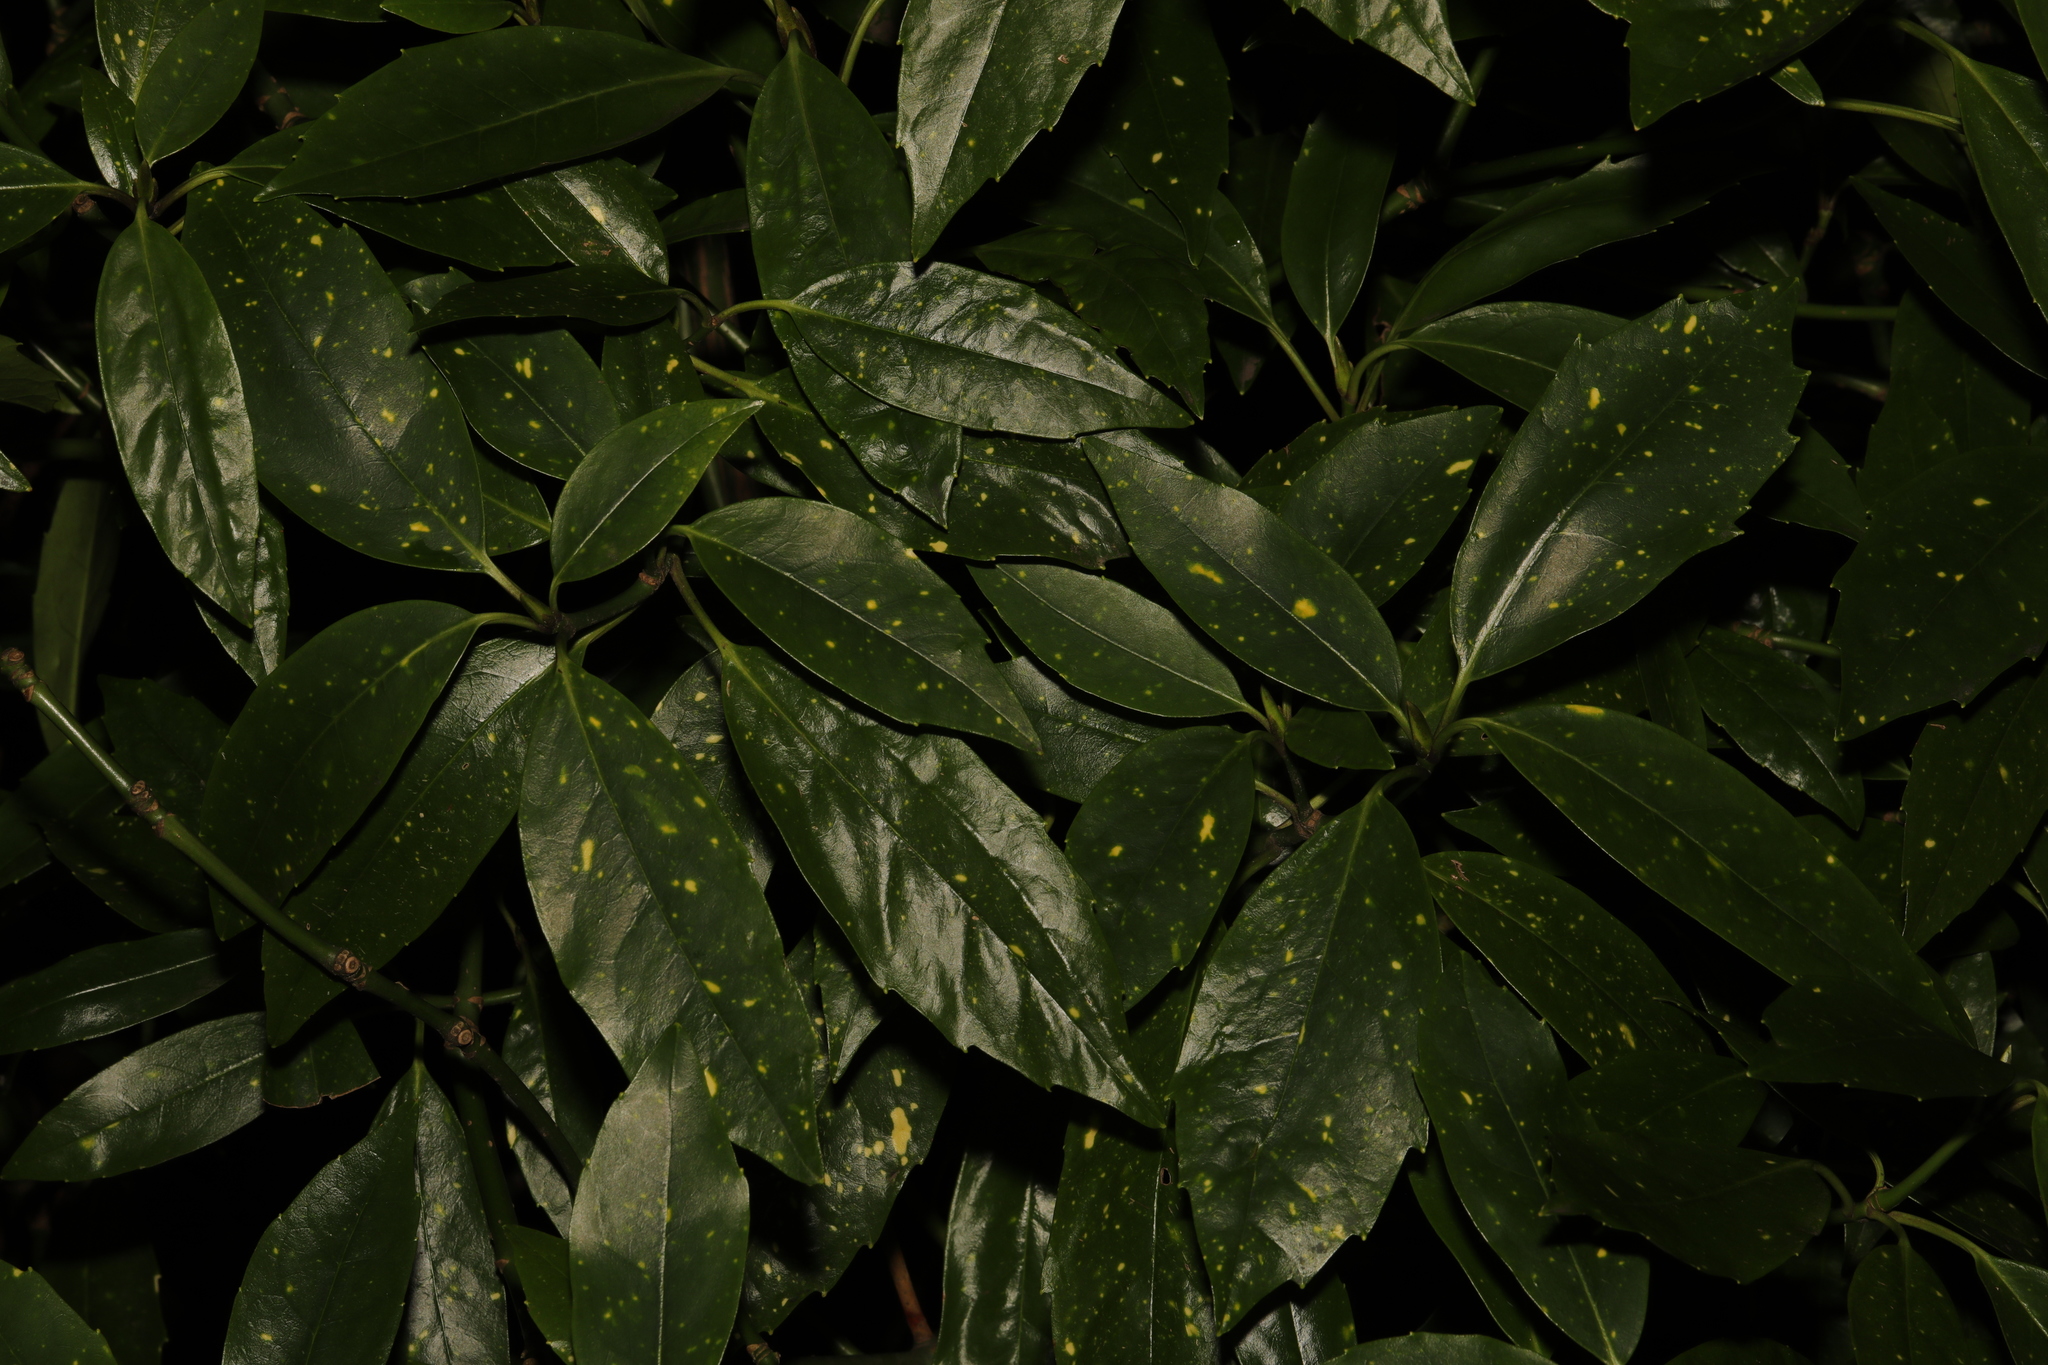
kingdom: Plantae
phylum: Tracheophyta
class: Magnoliopsida
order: Garryales
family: Garryaceae
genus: Aucuba
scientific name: Aucuba japonica
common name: Spotted-laurel
